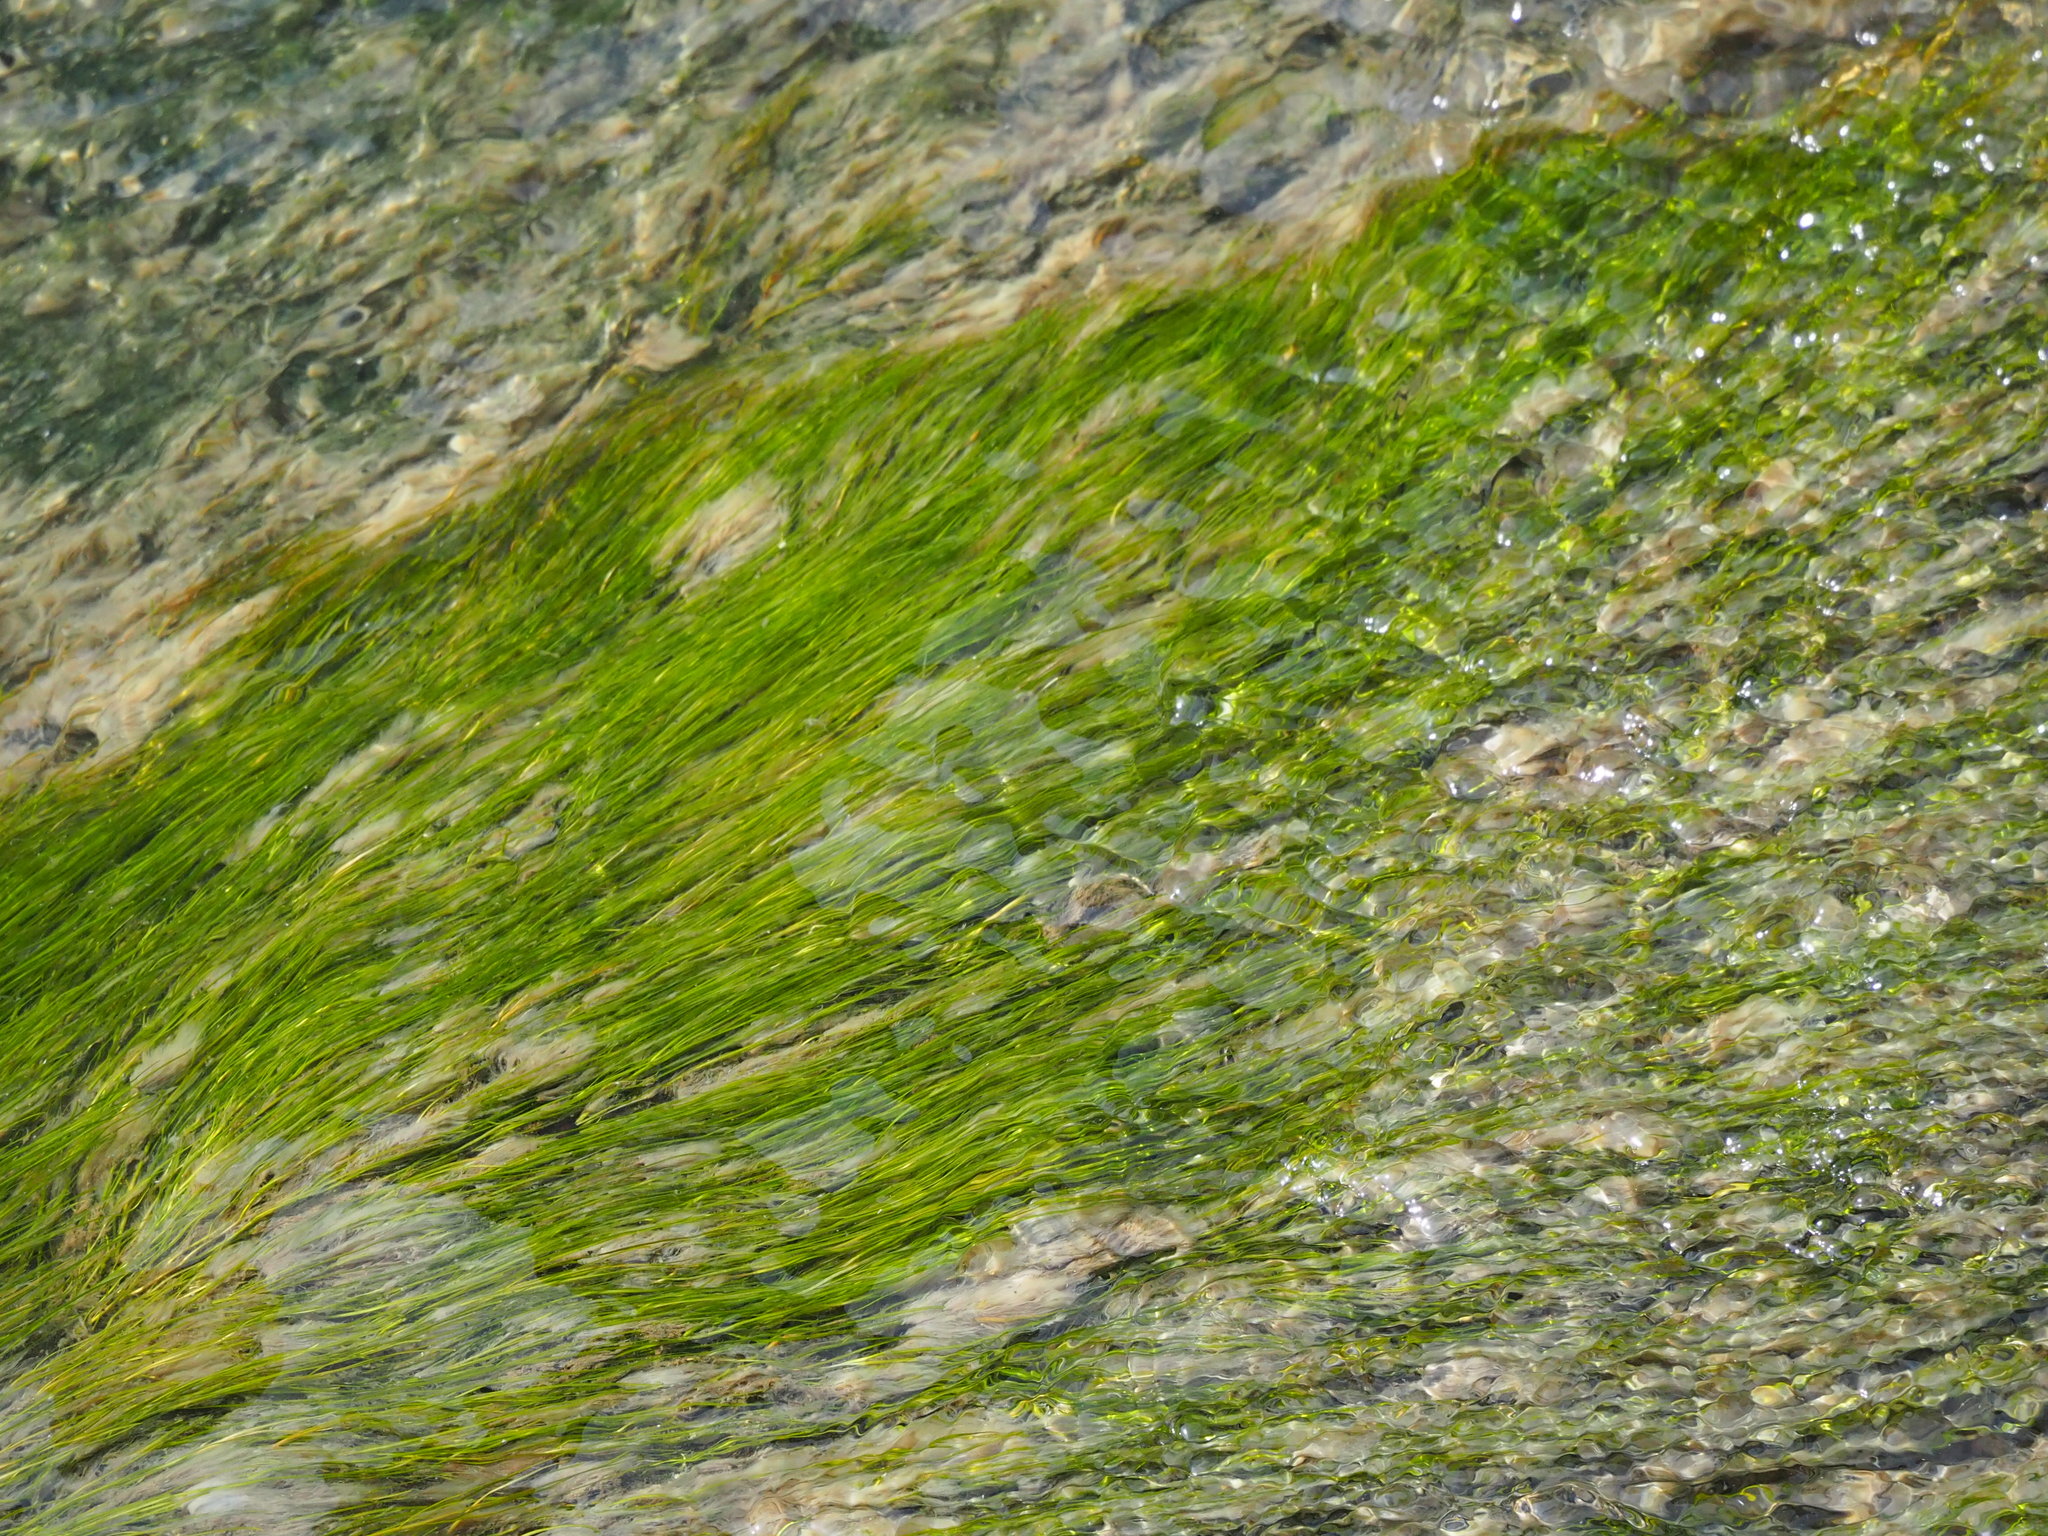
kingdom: Plantae
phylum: Tracheophyta
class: Liliopsida
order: Alismatales
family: Potamogetonaceae
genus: Stuckenia
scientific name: Stuckenia pectinata
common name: Sago pondweed
